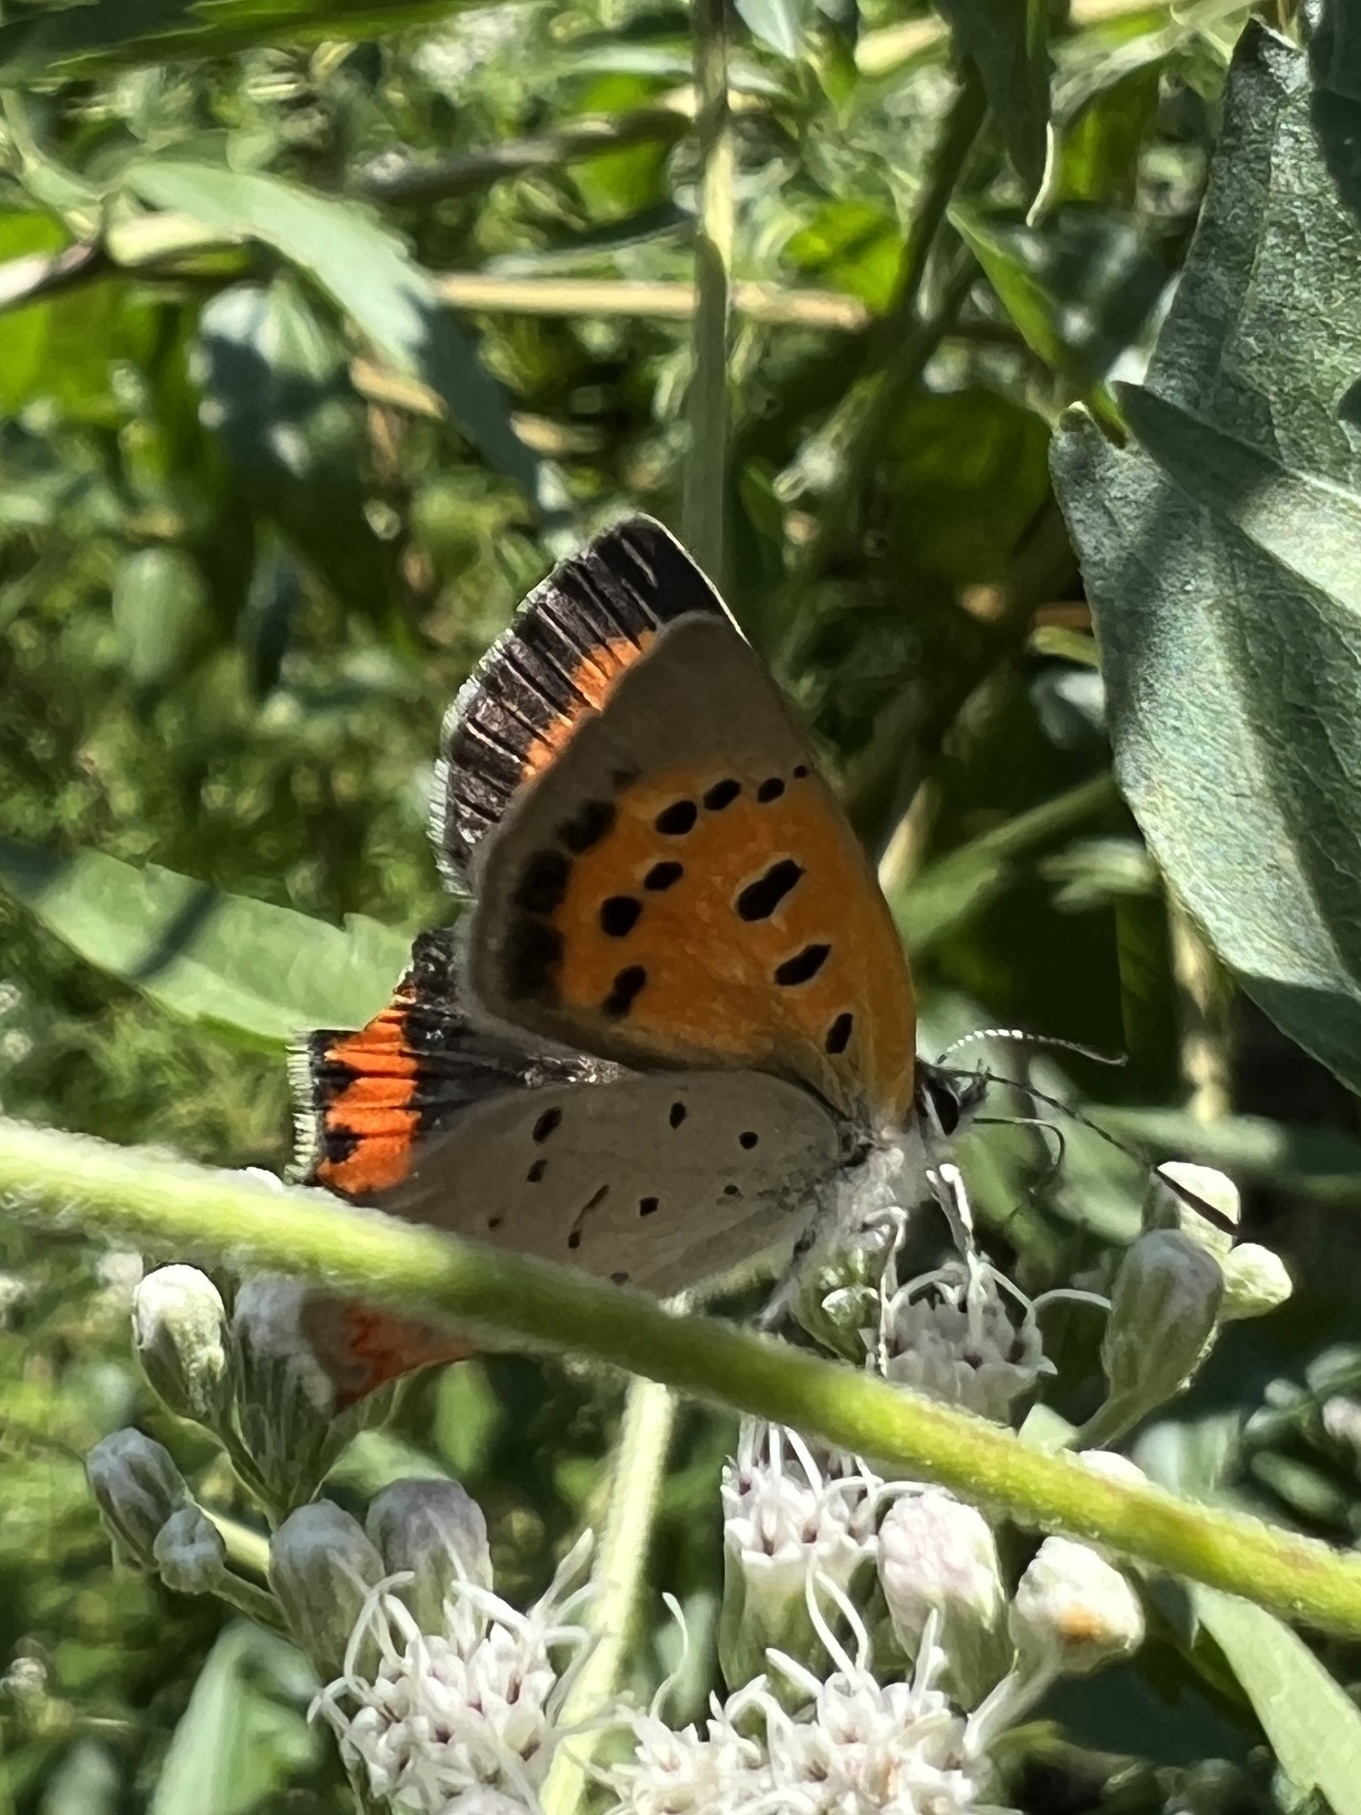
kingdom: Animalia
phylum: Arthropoda
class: Insecta
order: Lepidoptera
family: Lycaenidae
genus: Lycaena
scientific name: Lycaena hypophlaeas
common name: American copper
